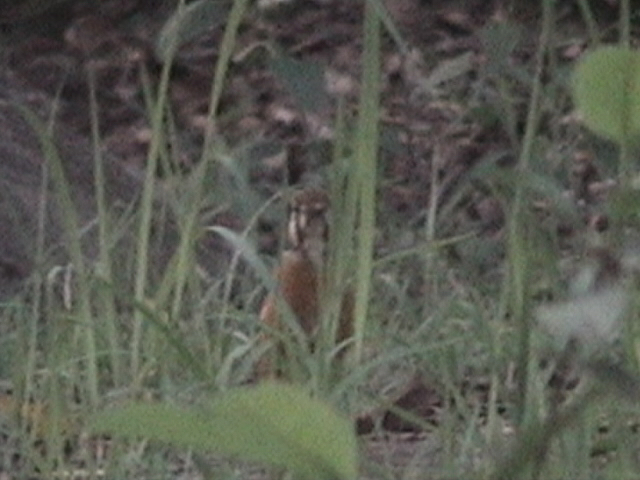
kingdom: Animalia
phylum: Chordata
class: Aves
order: Passeriformes
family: Turdidae
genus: Geokichla
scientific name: Geokichla citrina
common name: Orange-headed thrush
